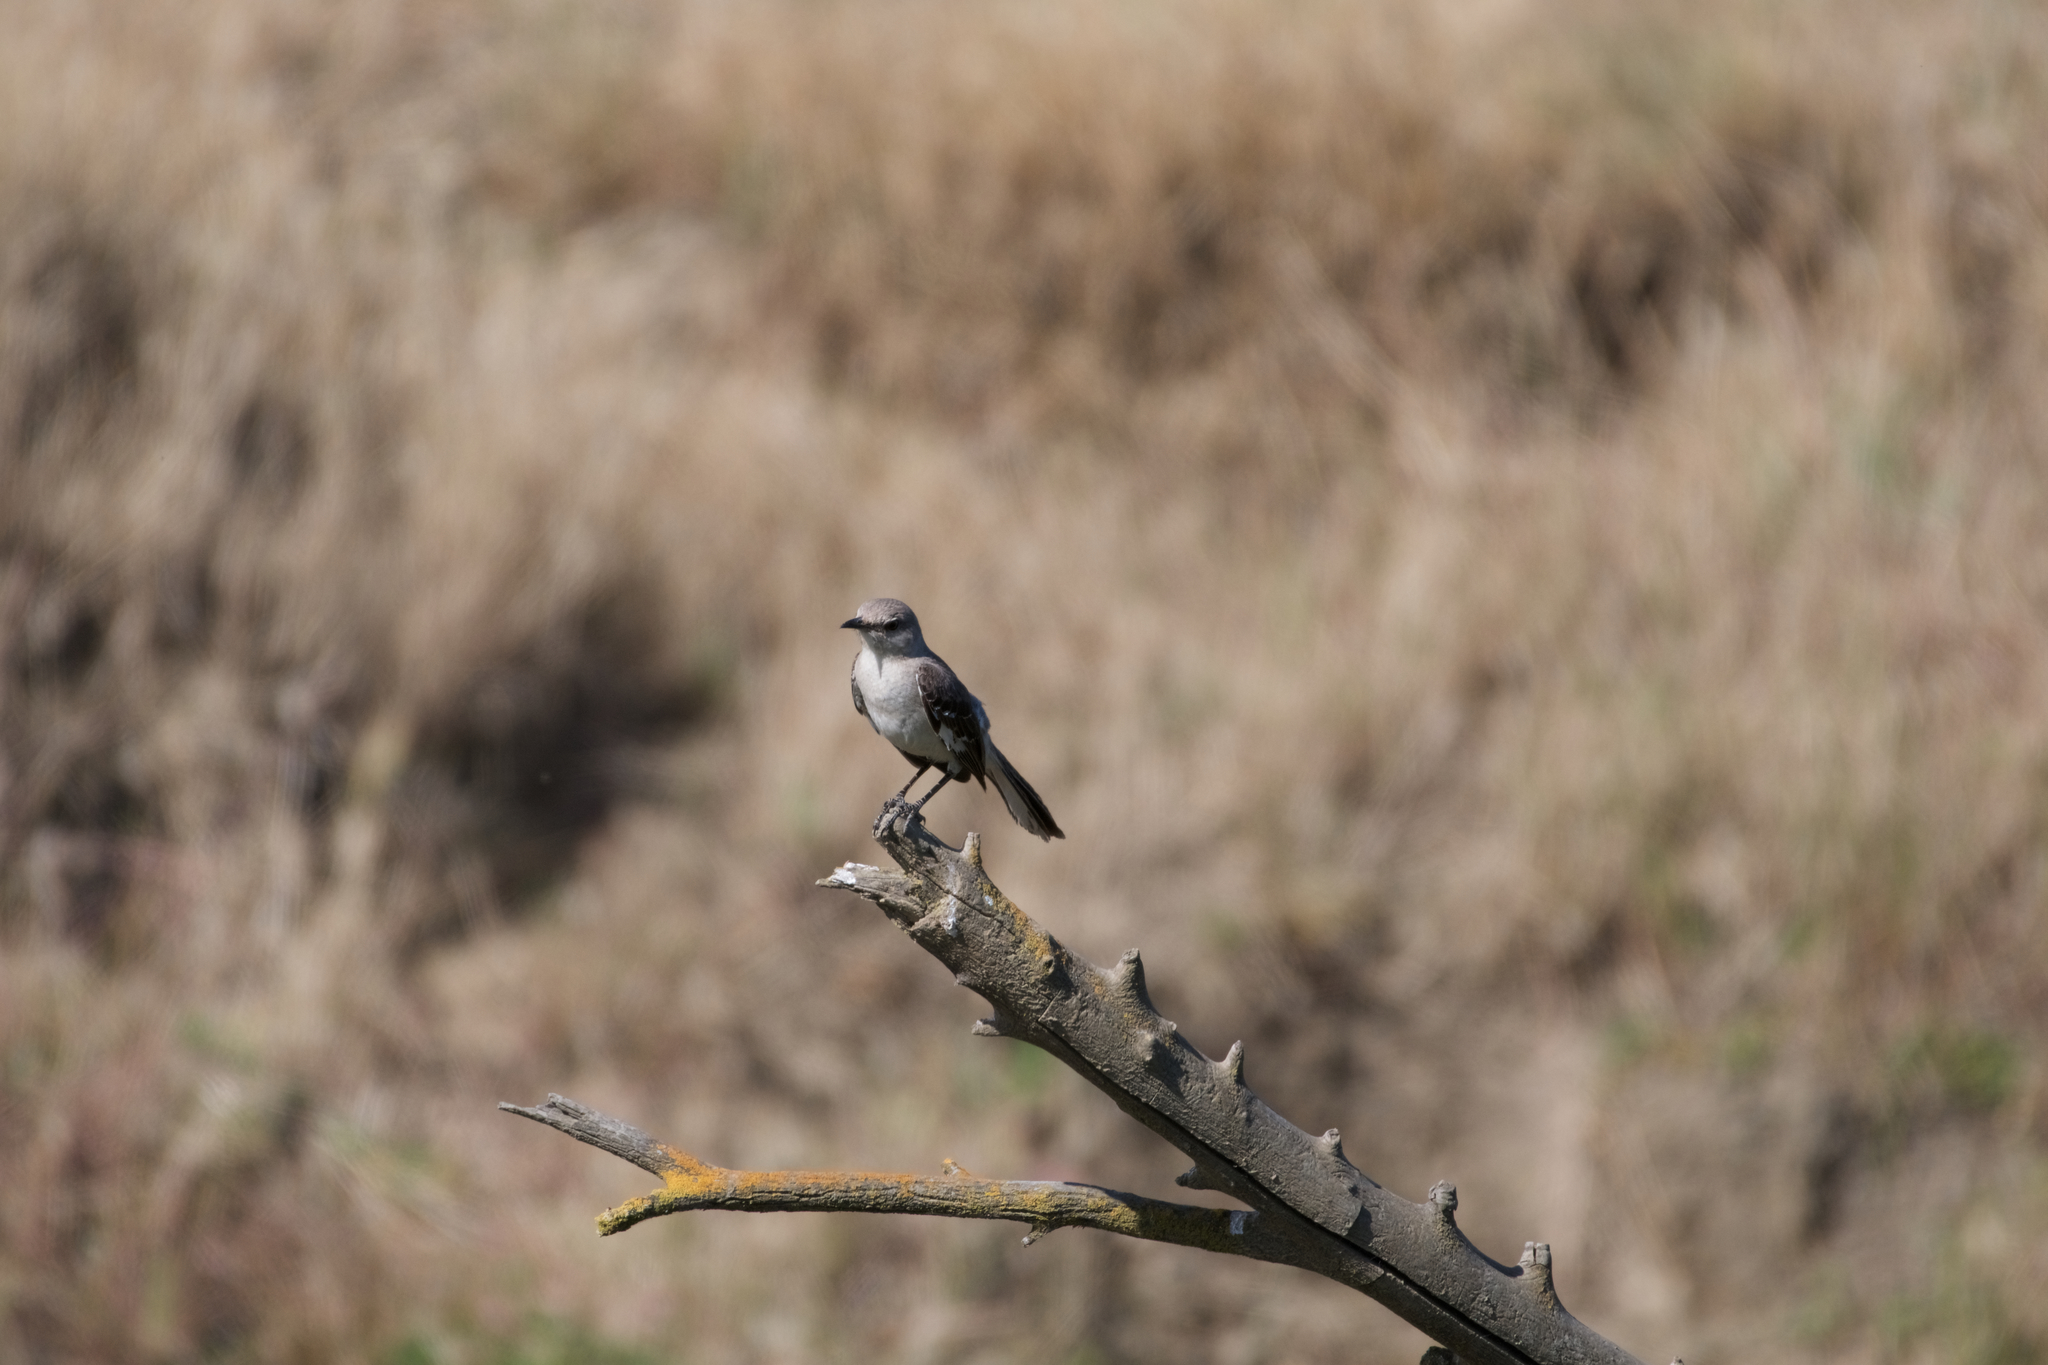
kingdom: Animalia
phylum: Chordata
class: Aves
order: Passeriformes
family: Mimidae
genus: Mimus
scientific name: Mimus polyglottos
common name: Northern mockingbird
